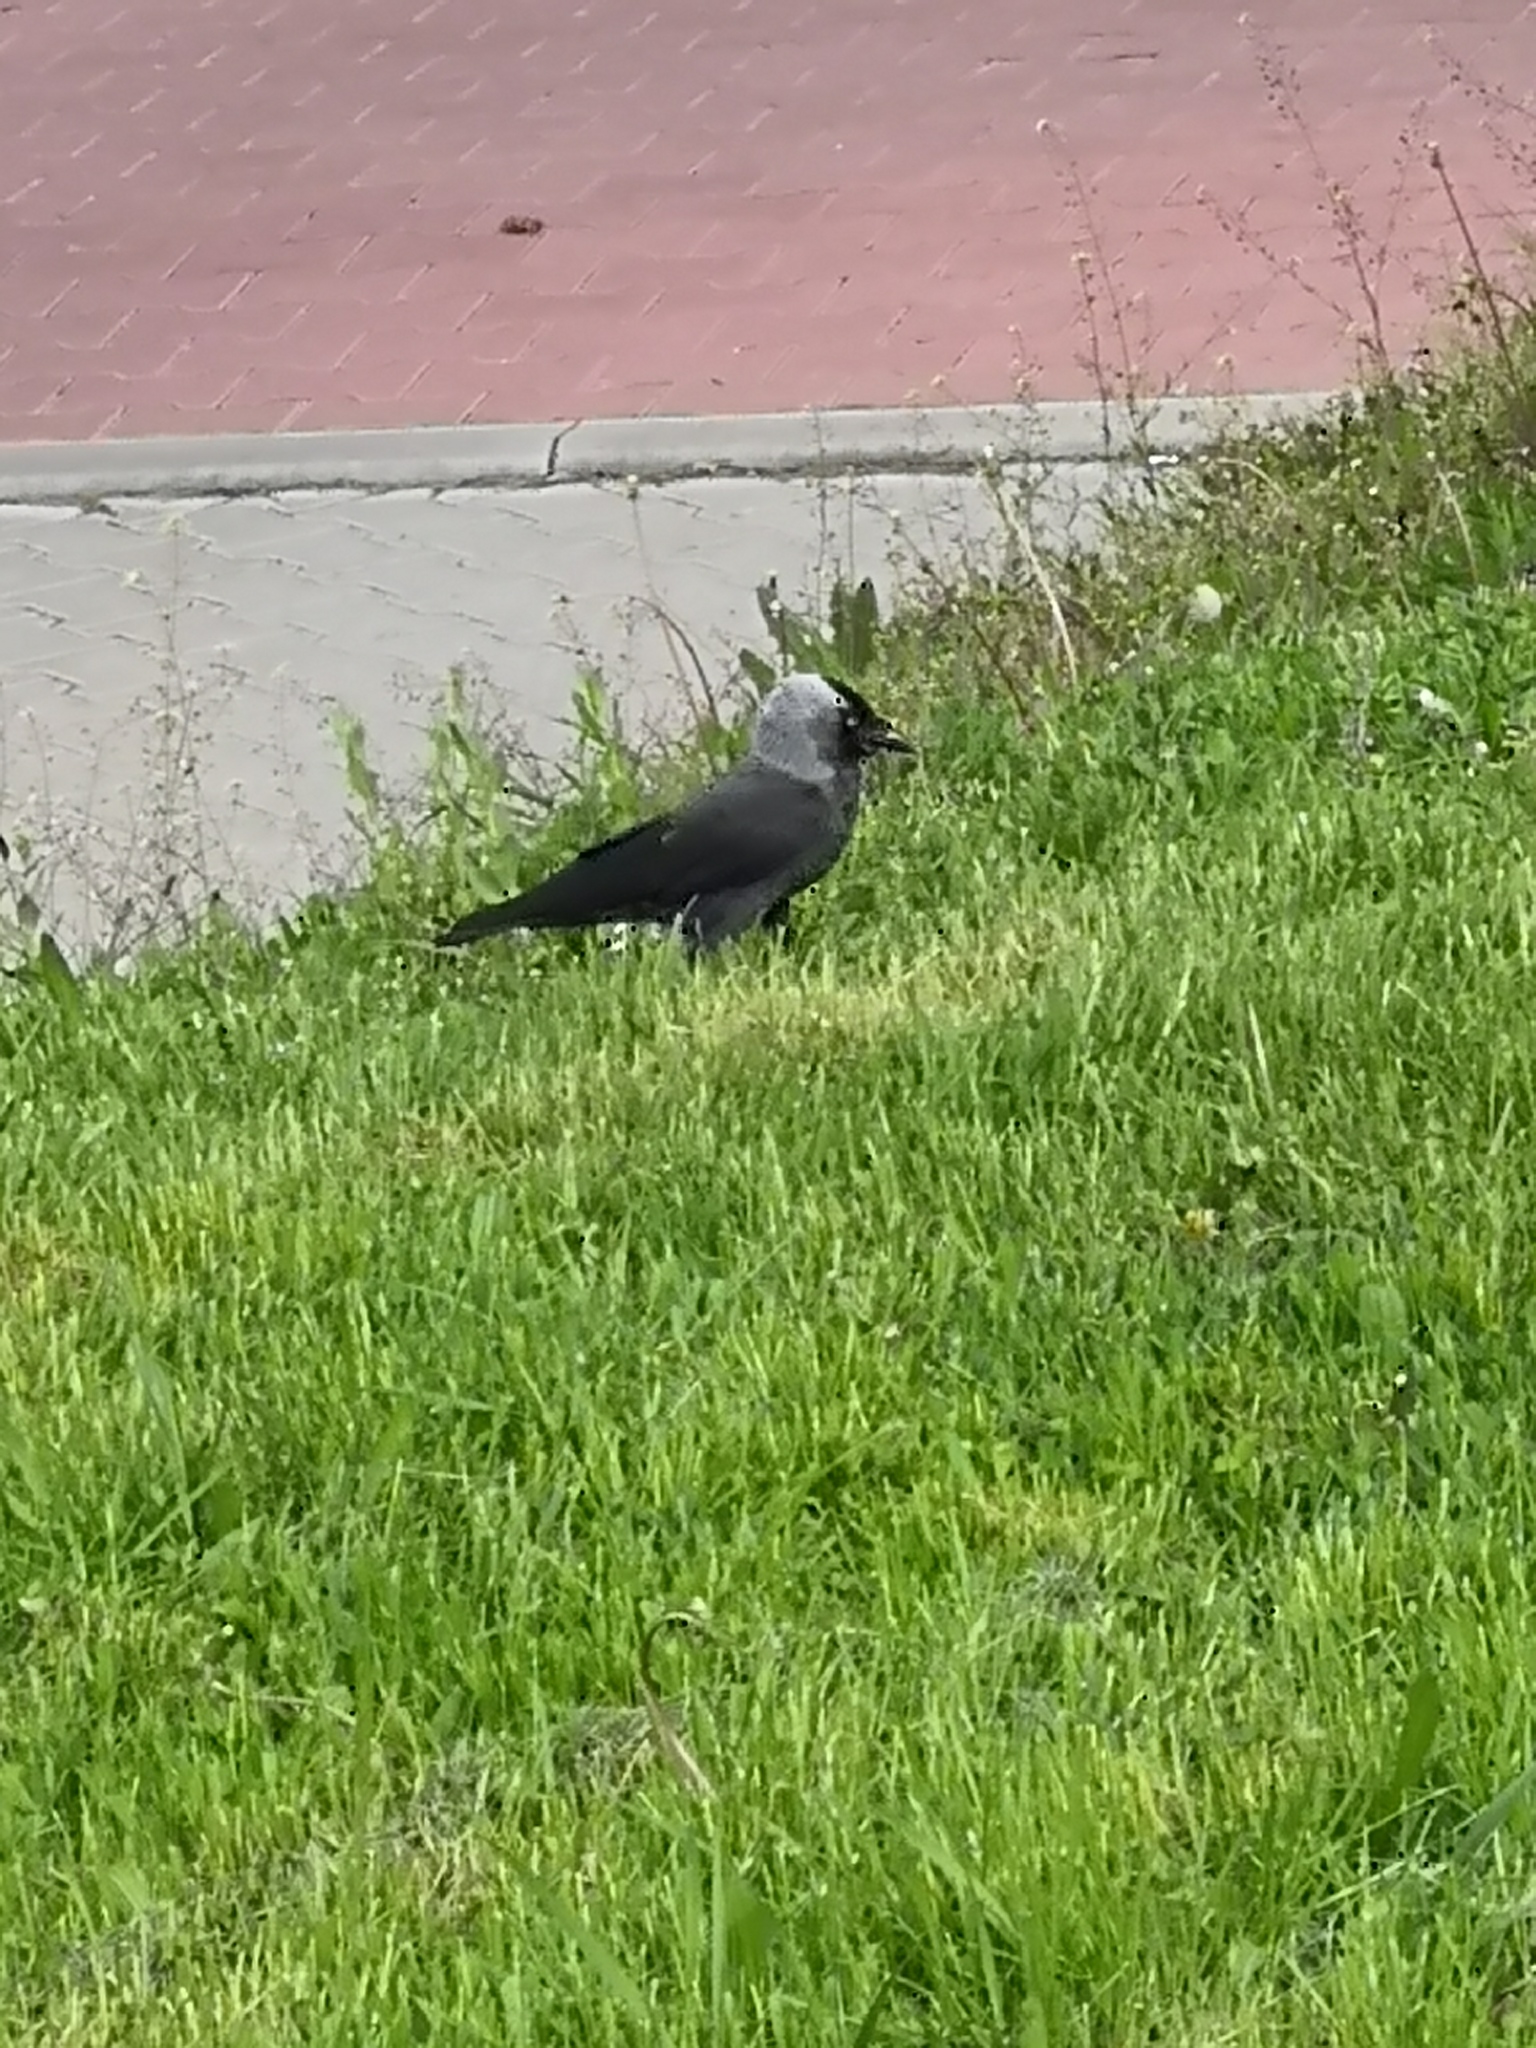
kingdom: Animalia
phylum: Chordata
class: Aves
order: Passeriformes
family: Corvidae
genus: Coloeus
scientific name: Coloeus monedula
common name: Western jackdaw
